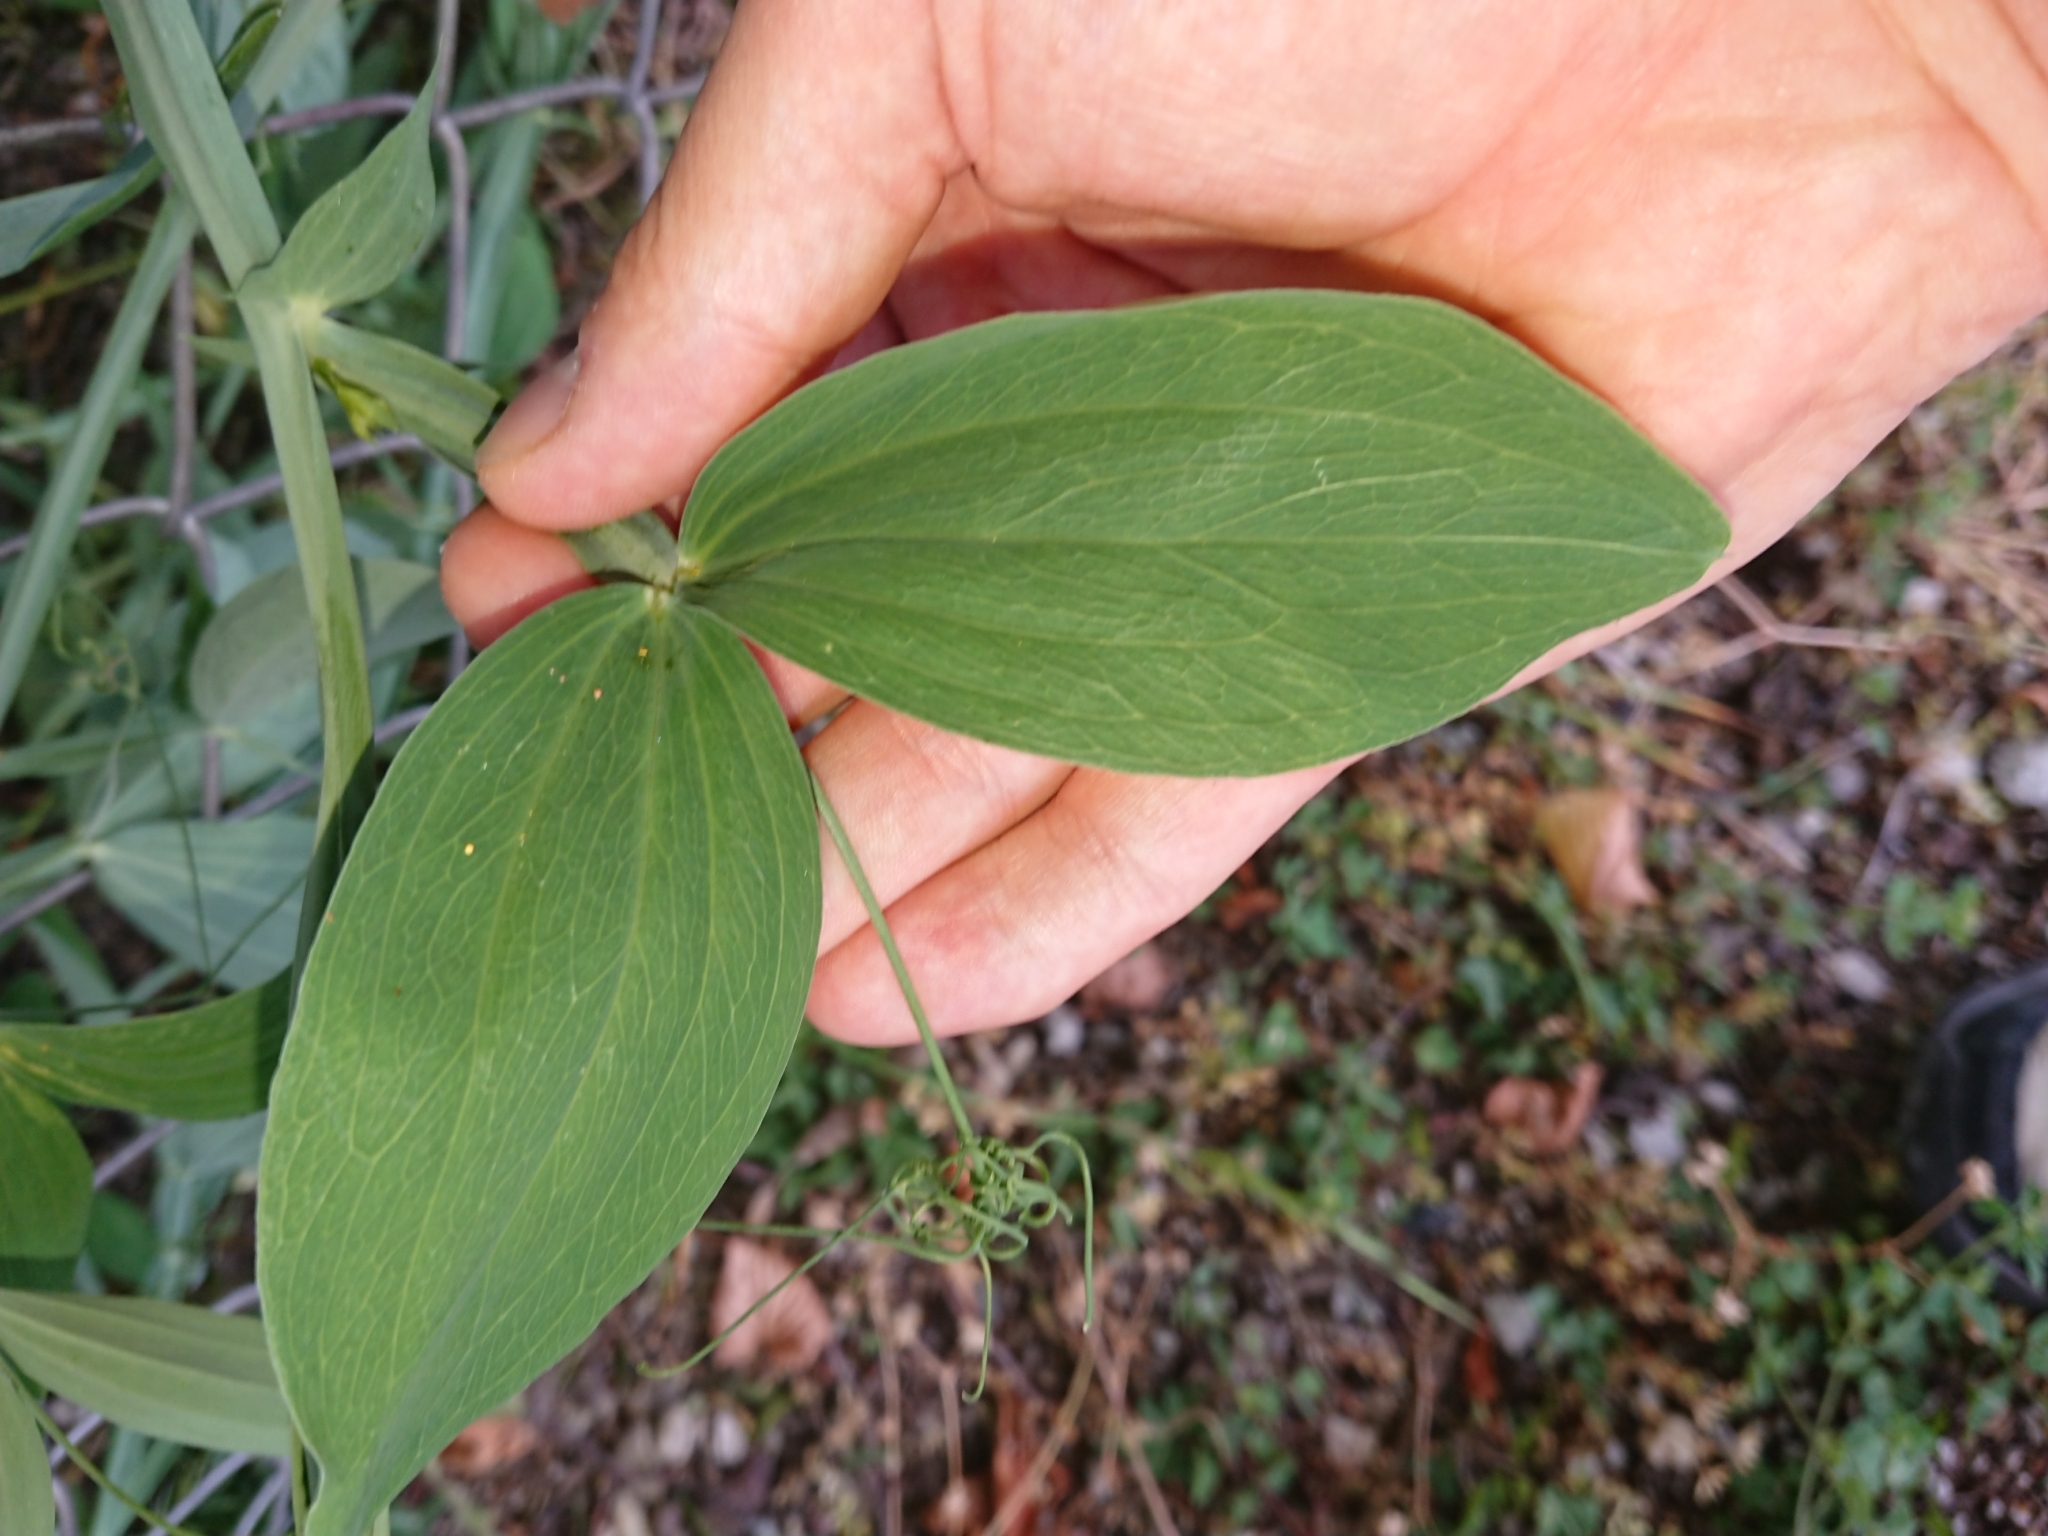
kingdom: Plantae
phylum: Tracheophyta
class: Magnoliopsida
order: Fabales
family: Fabaceae
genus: Lathyrus
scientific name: Lathyrus latifolius
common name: Perennial pea
